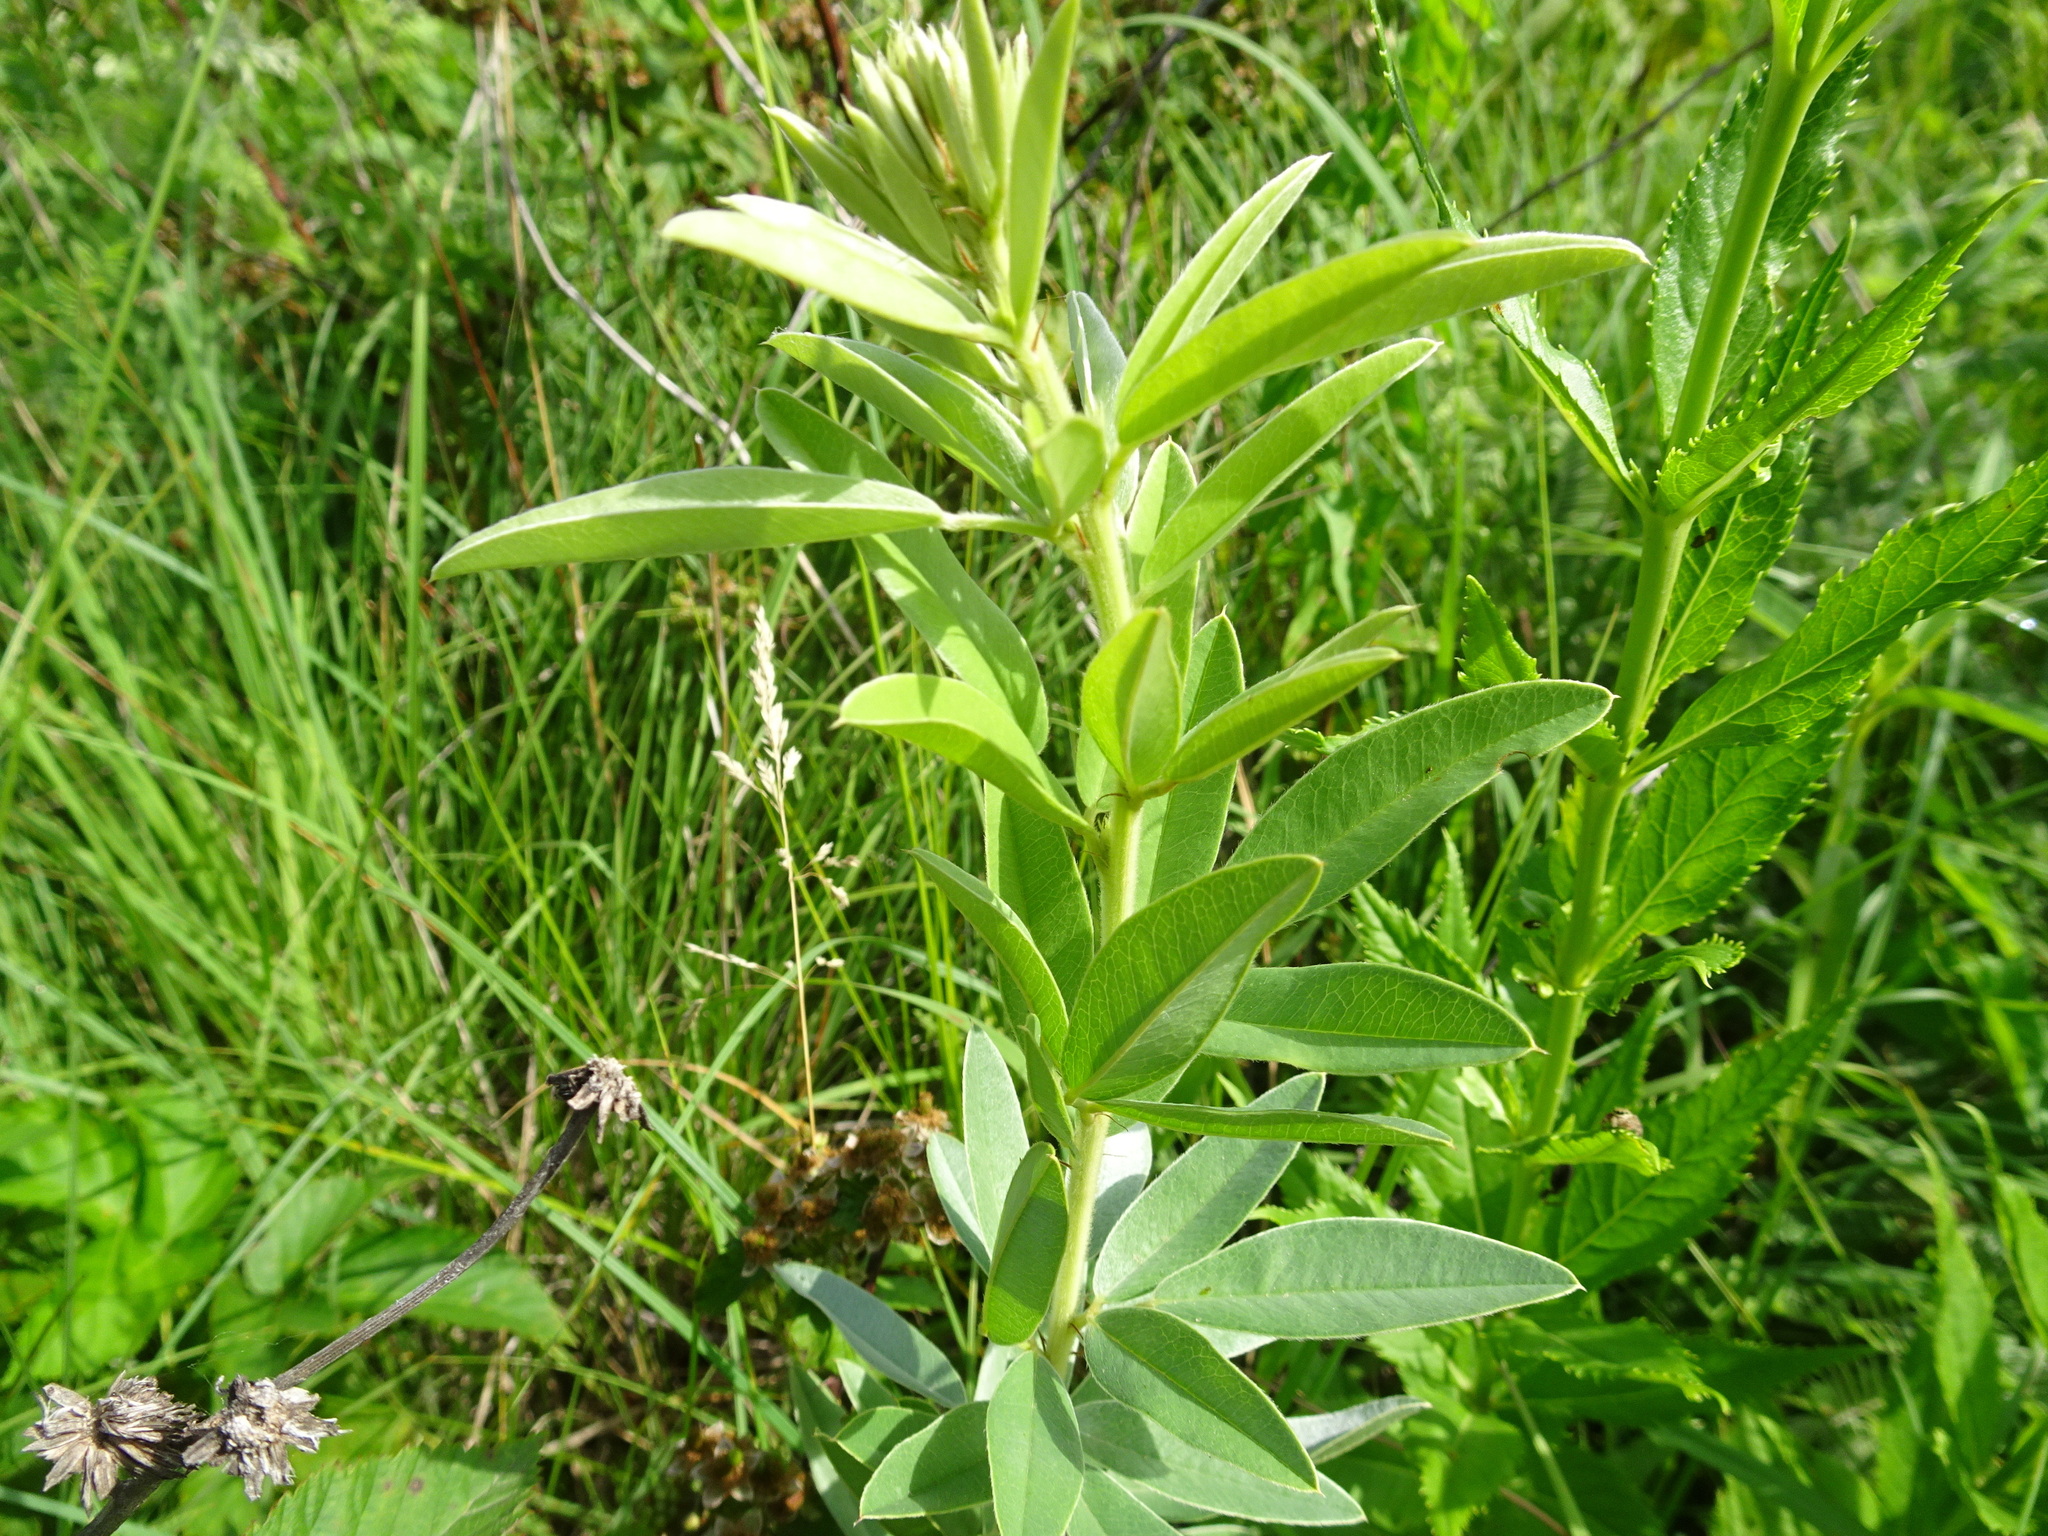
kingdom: Plantae
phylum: Tracheophyta
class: Magnoliopsida
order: Fabales
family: Fabaceae
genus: Lespedeza
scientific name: Lespedeza capitata
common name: Dusty clover
